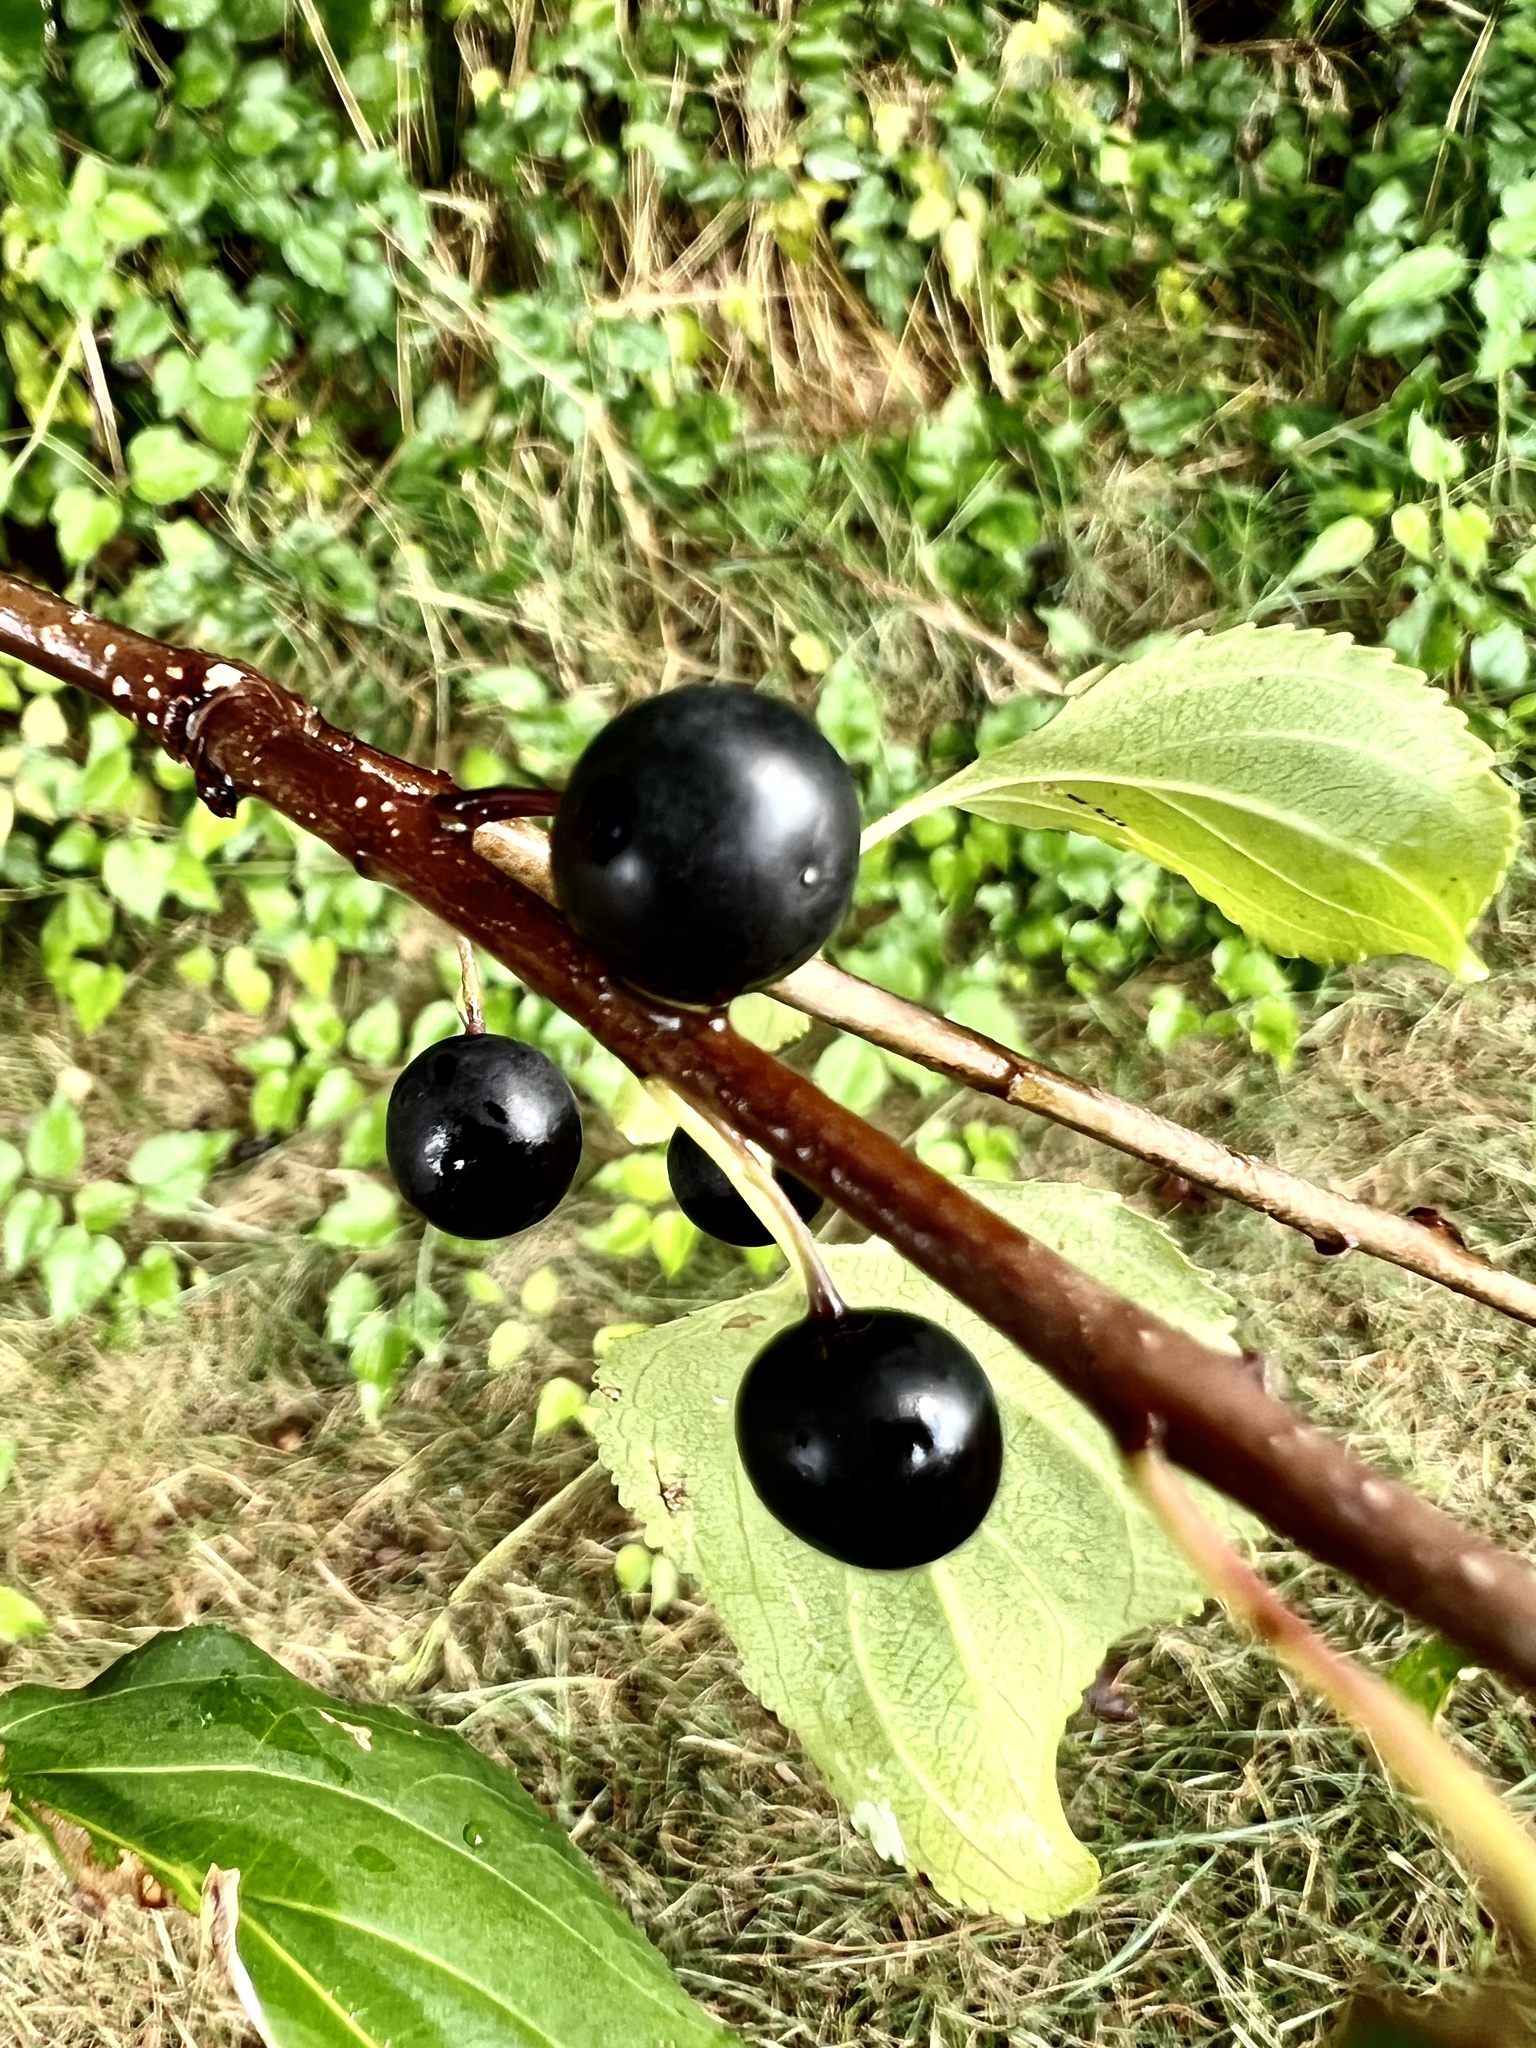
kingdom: Plantae
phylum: Tracheophyta
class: Magnoliopsida
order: Rosales
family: Rhamnaceae
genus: Rhamnus
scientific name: Rhamnus cathartica
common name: Common buckthorn
